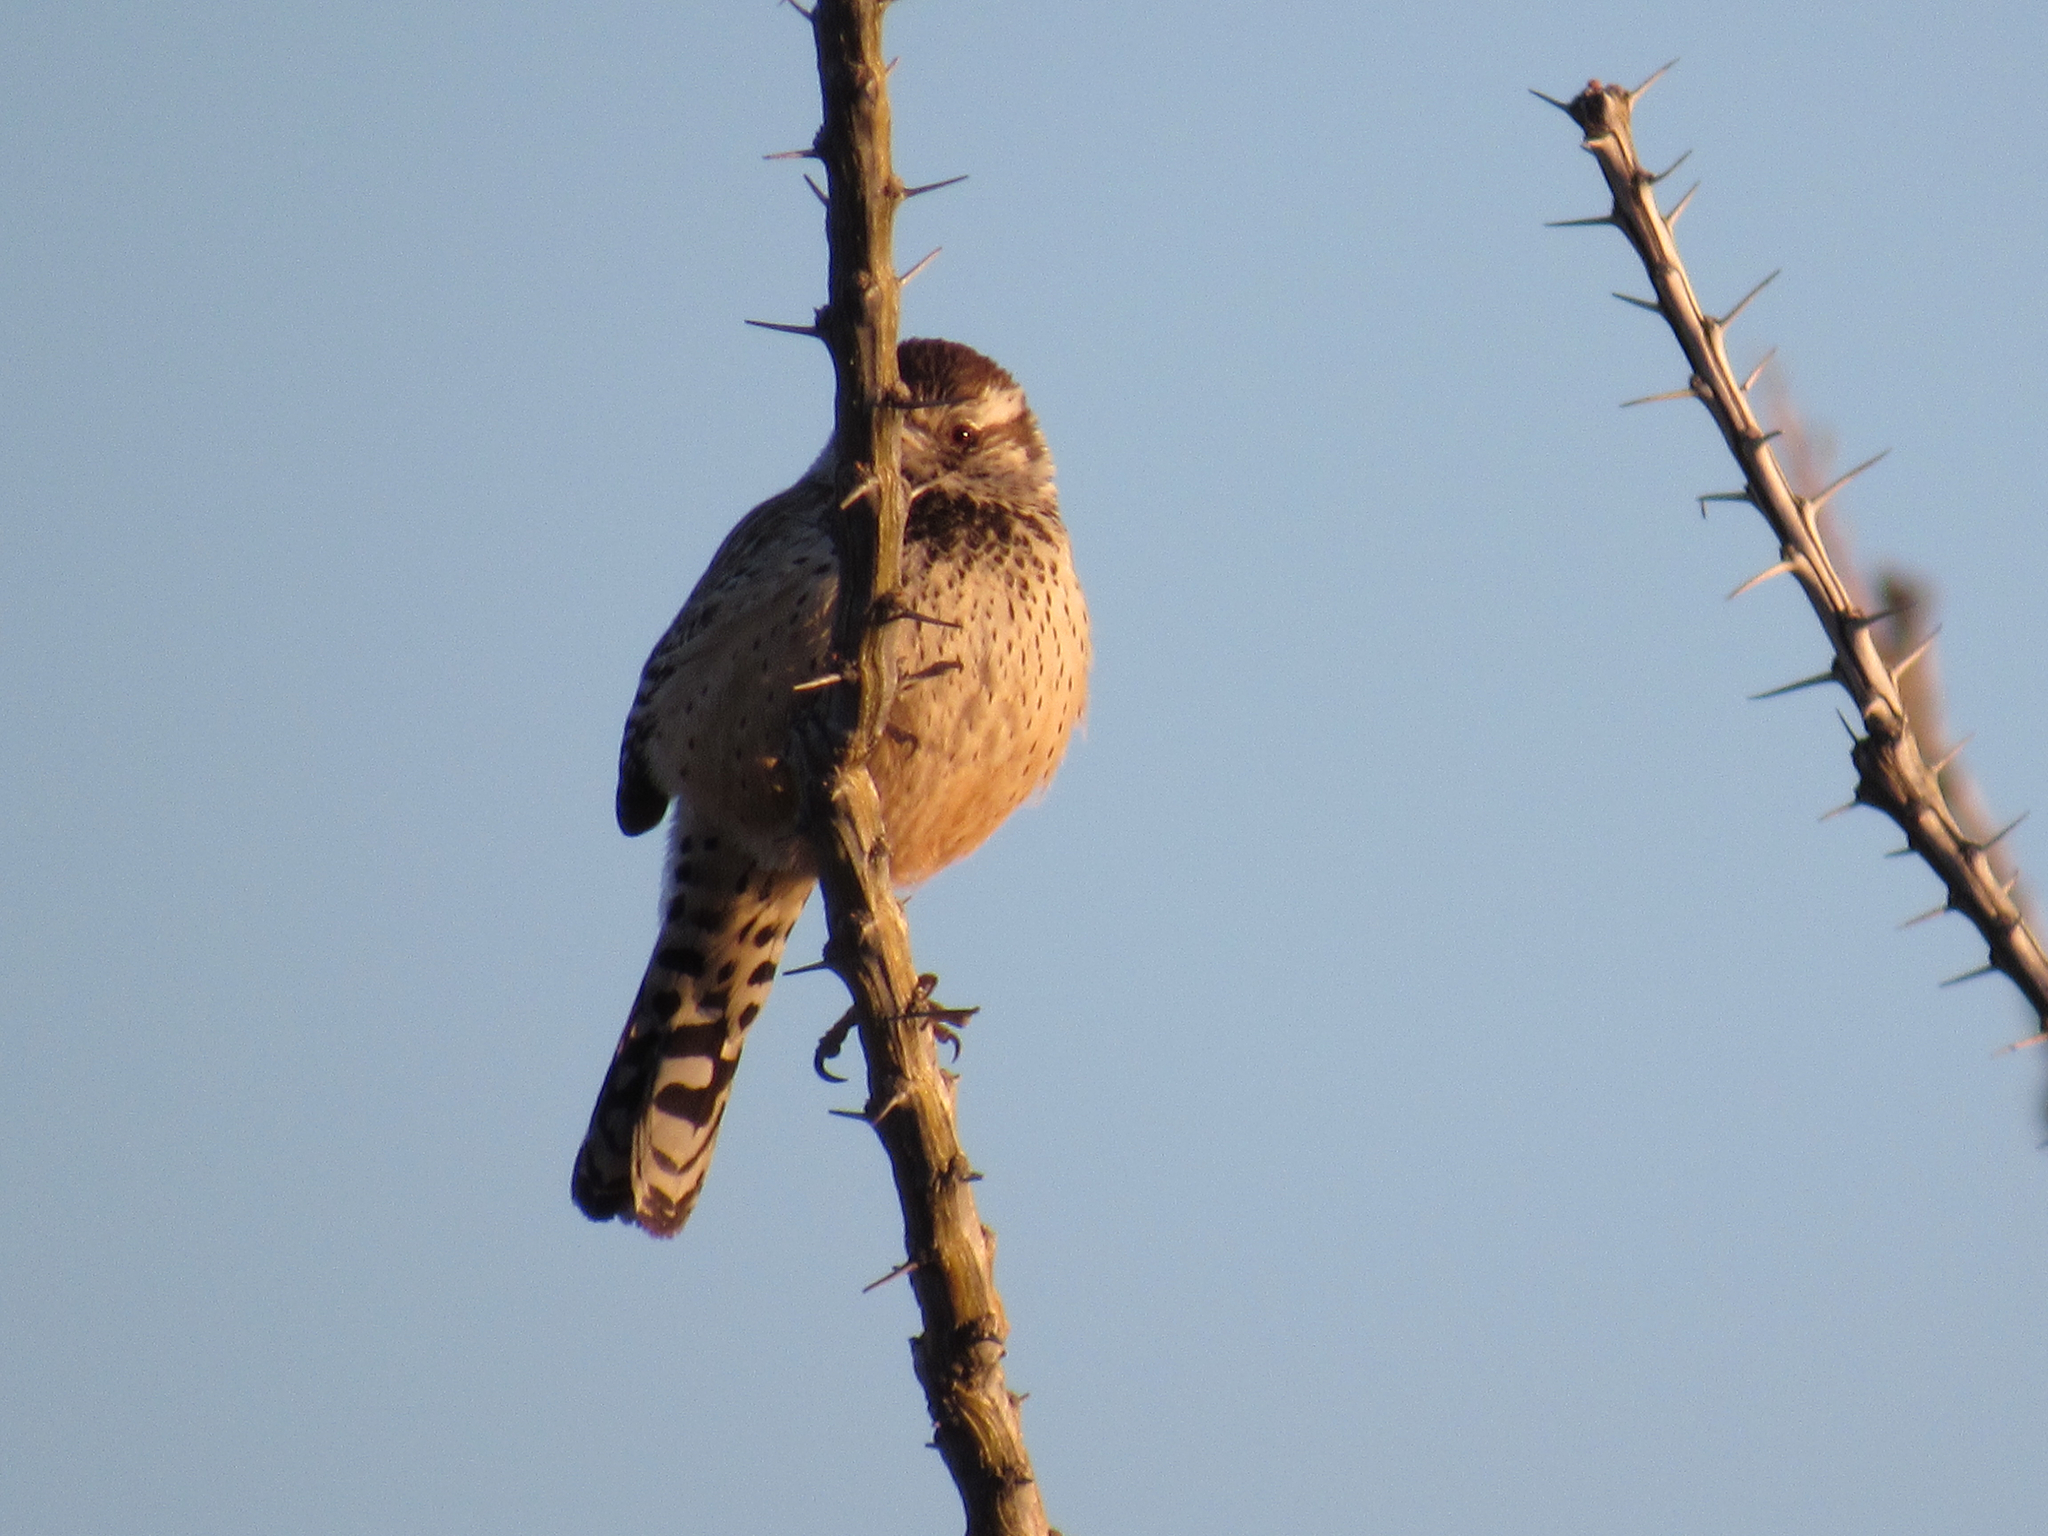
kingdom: Animalia
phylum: Chordata
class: Aves
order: Passeriformes
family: Troglodytidae
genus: Campylorhynchus
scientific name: Campylorhynchus brunneicapillus
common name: Cactus wren
